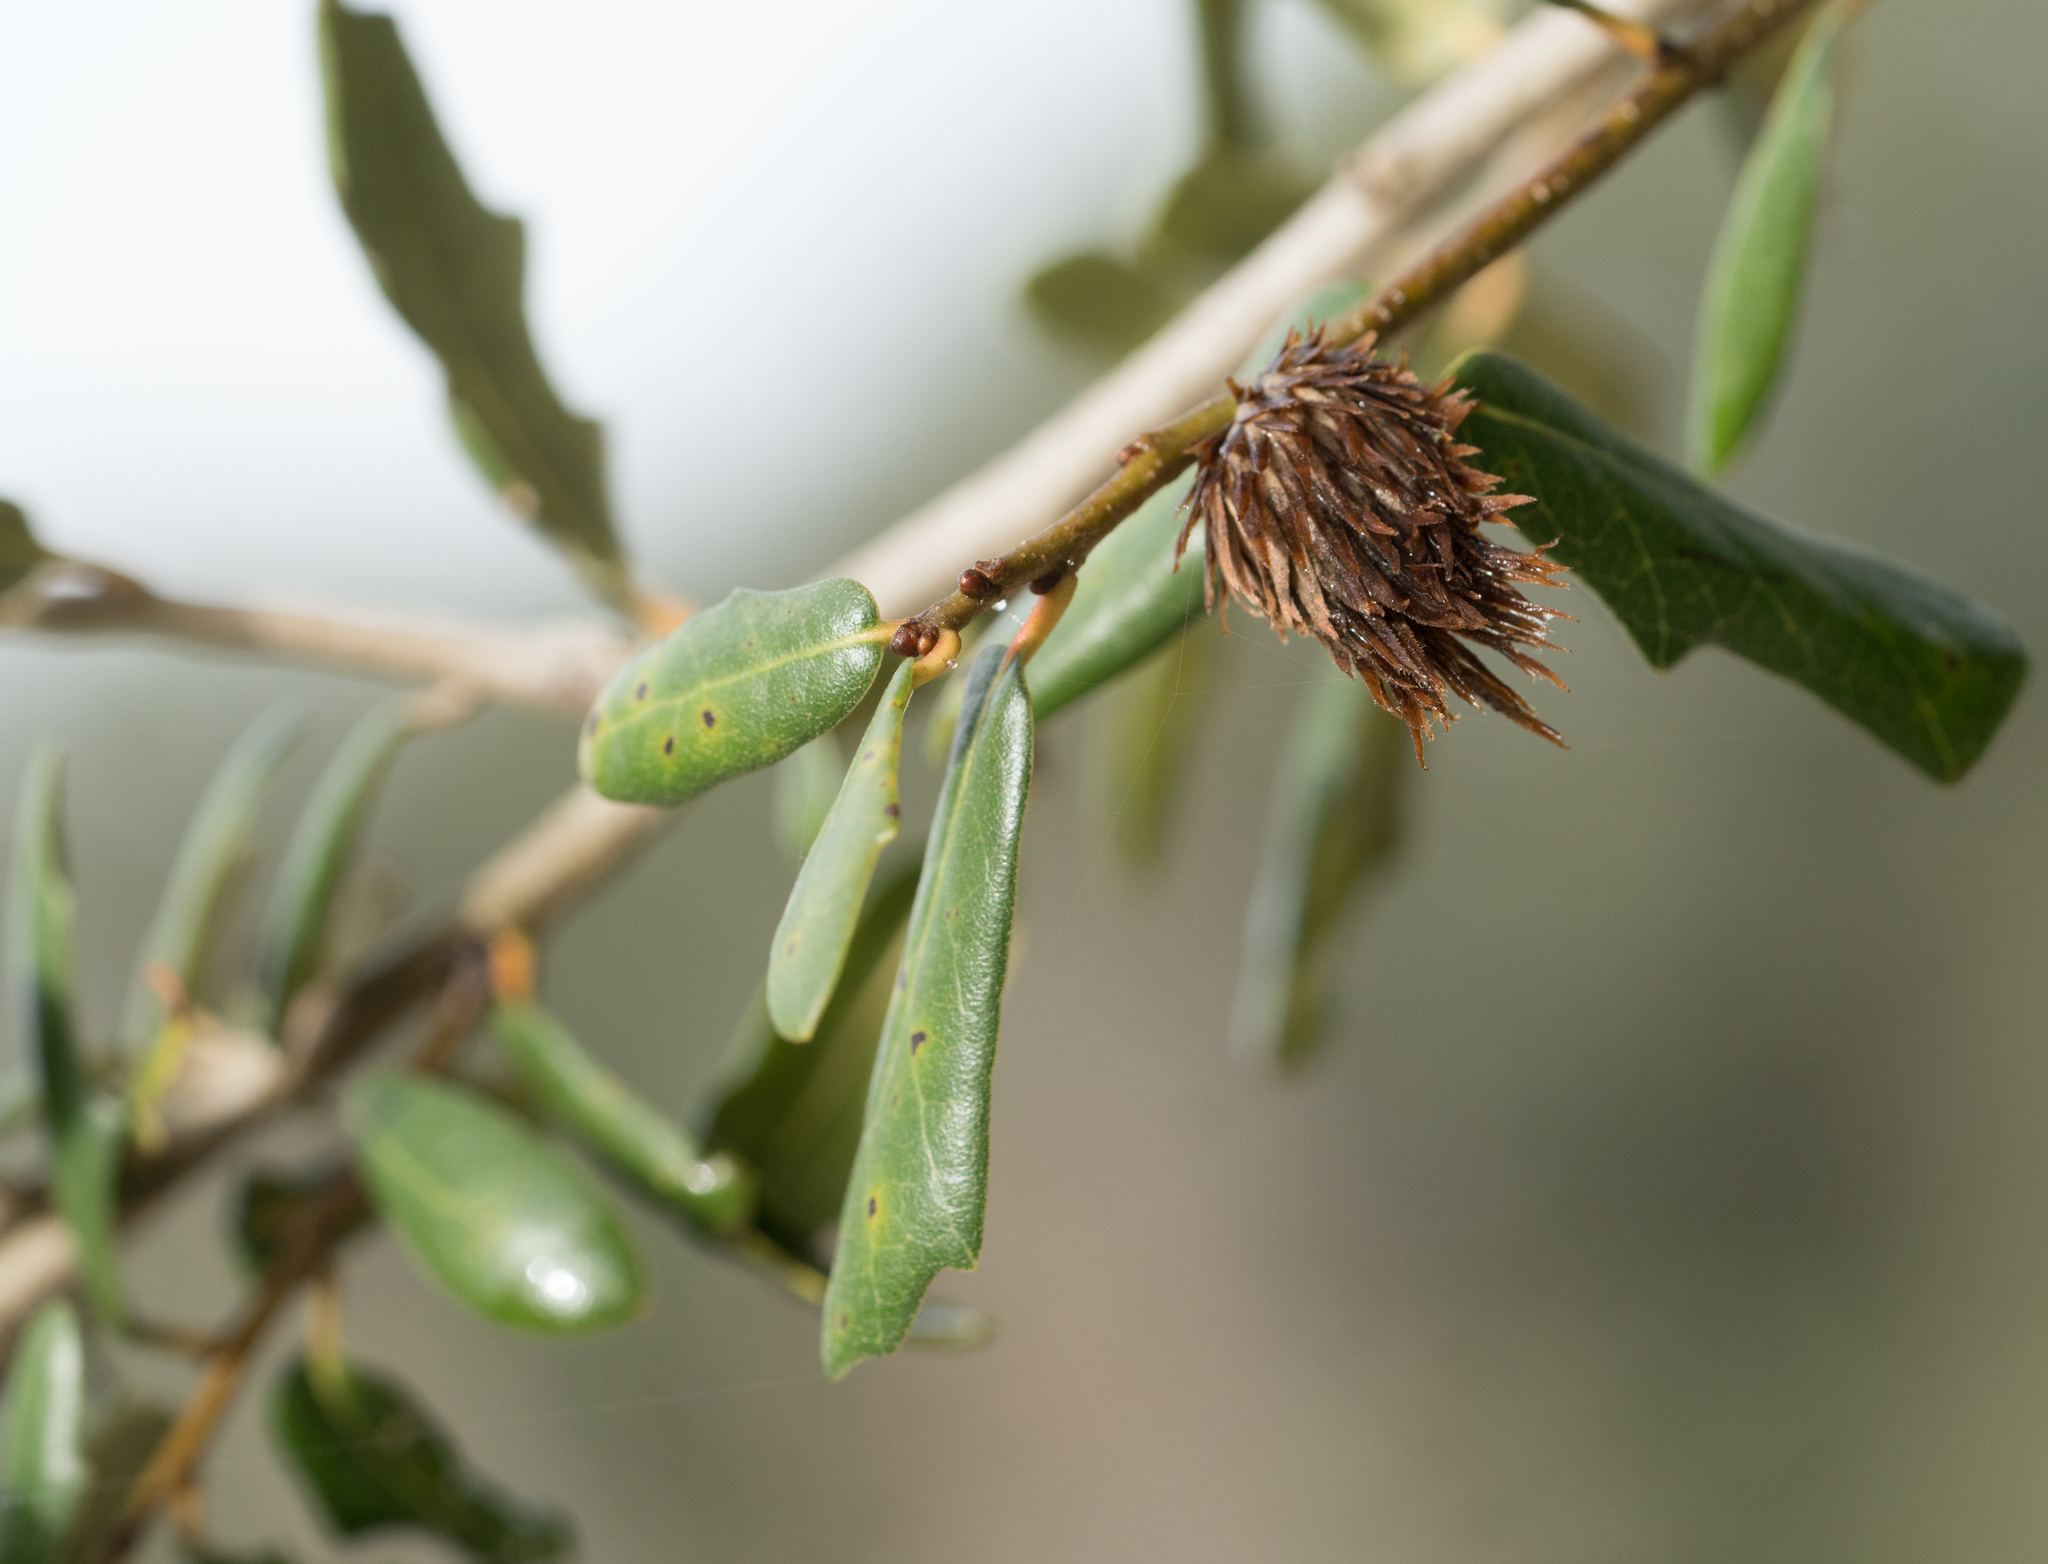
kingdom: Animalia
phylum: Arthropoda
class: Insecta
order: Hymenoptera
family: Cynipidae
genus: Andricus
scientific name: Andricus quercusfoliatus
